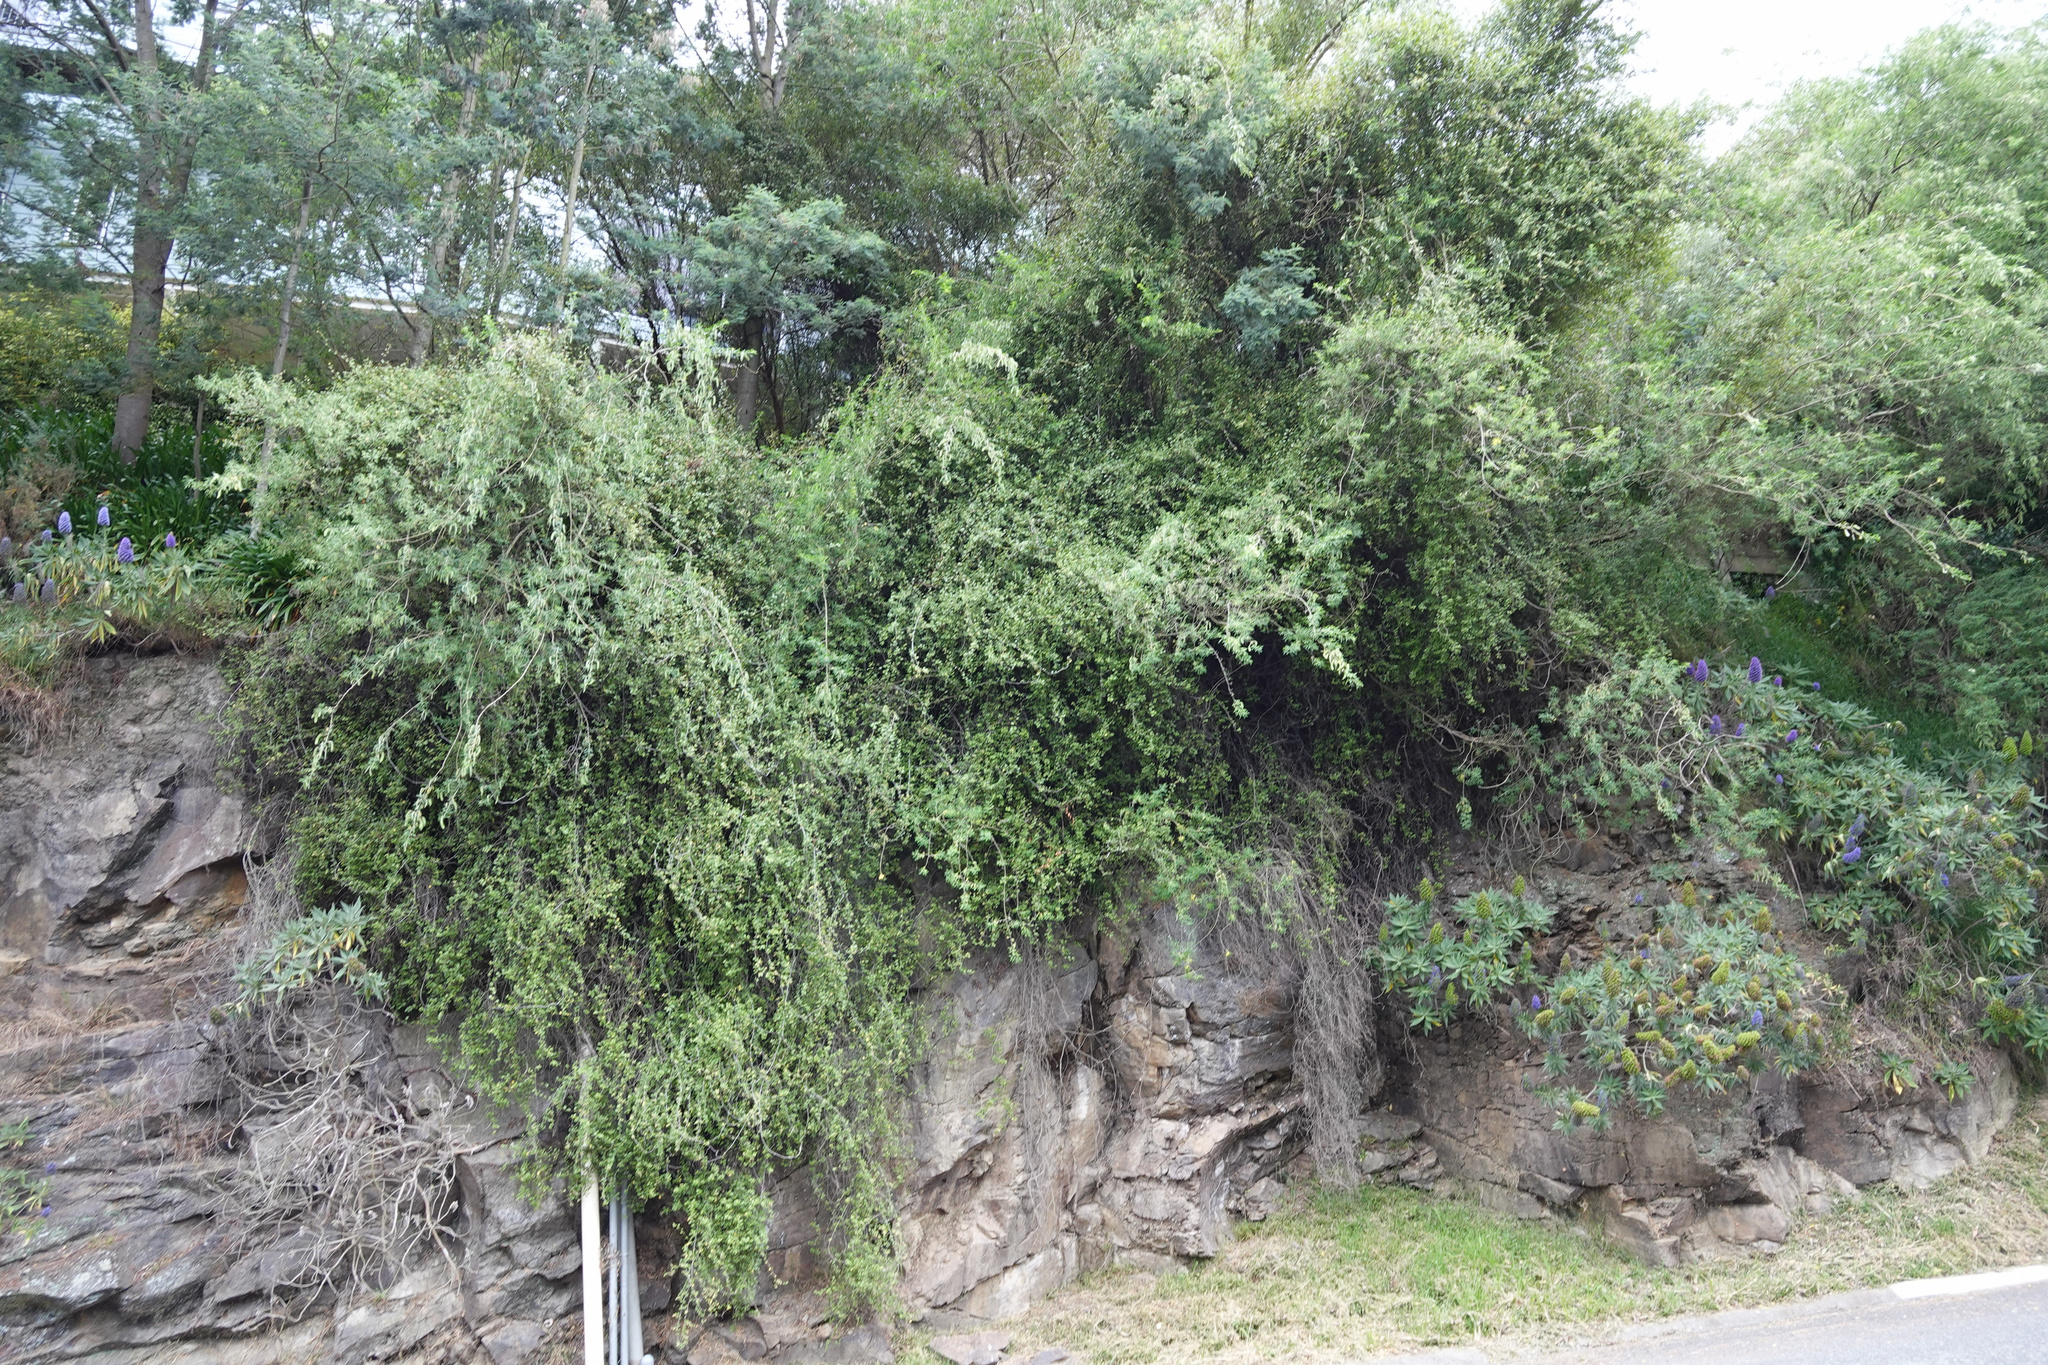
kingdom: Plantae
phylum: Tracheophyta
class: Magnoliopsida
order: Caryophyllales
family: Polygonaceae
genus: Muehlenbeckia
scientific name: Muehlenbeckia complexa
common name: Wireplant
